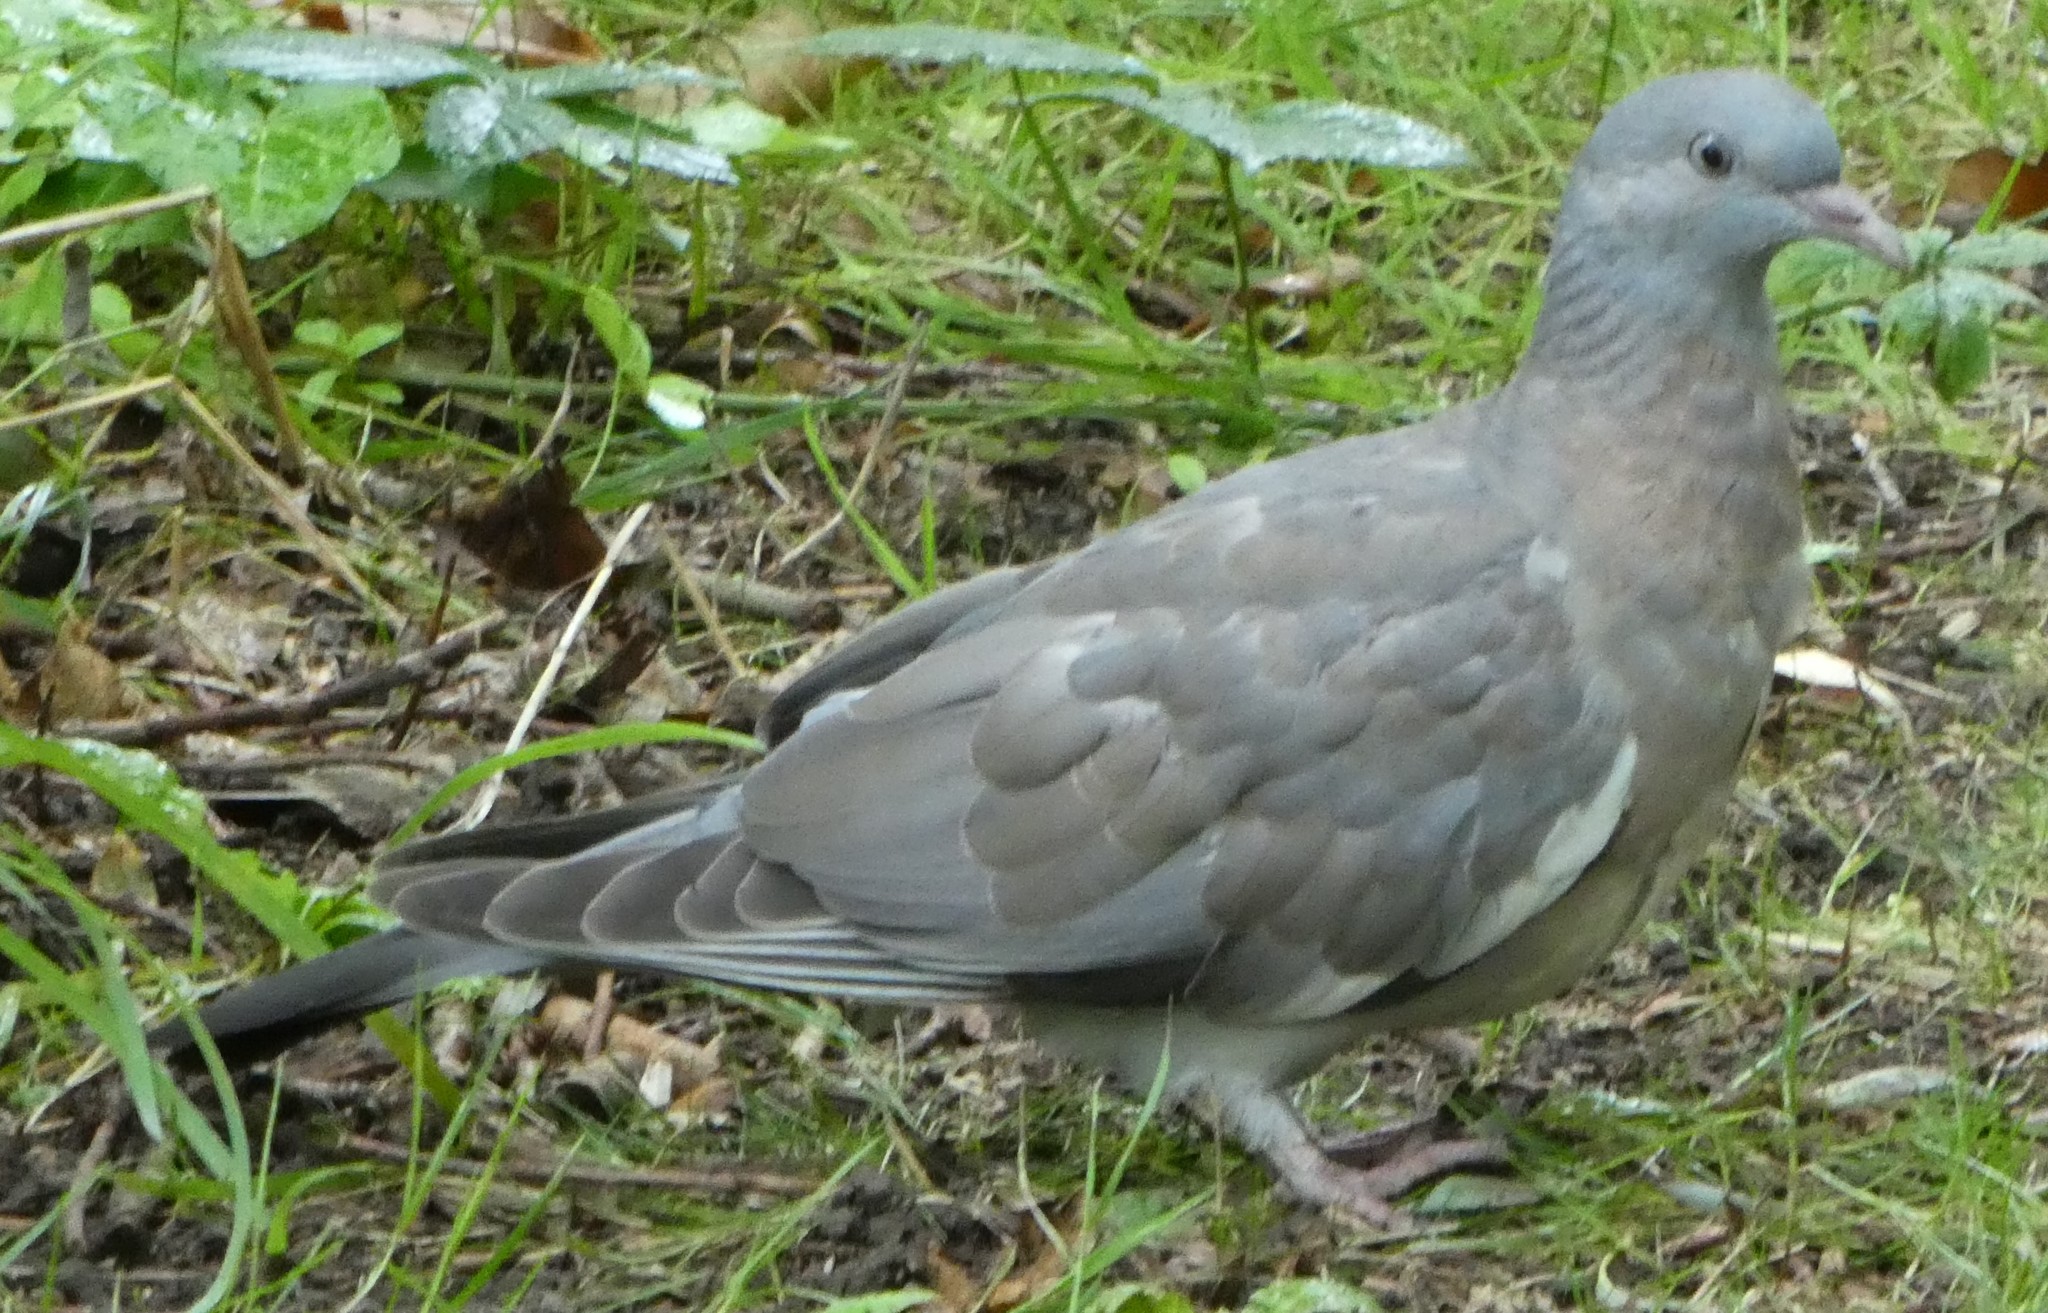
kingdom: Animalia
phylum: Chordata
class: Aves
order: Columbiformes
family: Columbidae
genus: Columba
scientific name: Columba palumbus
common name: Common wood pigeon
